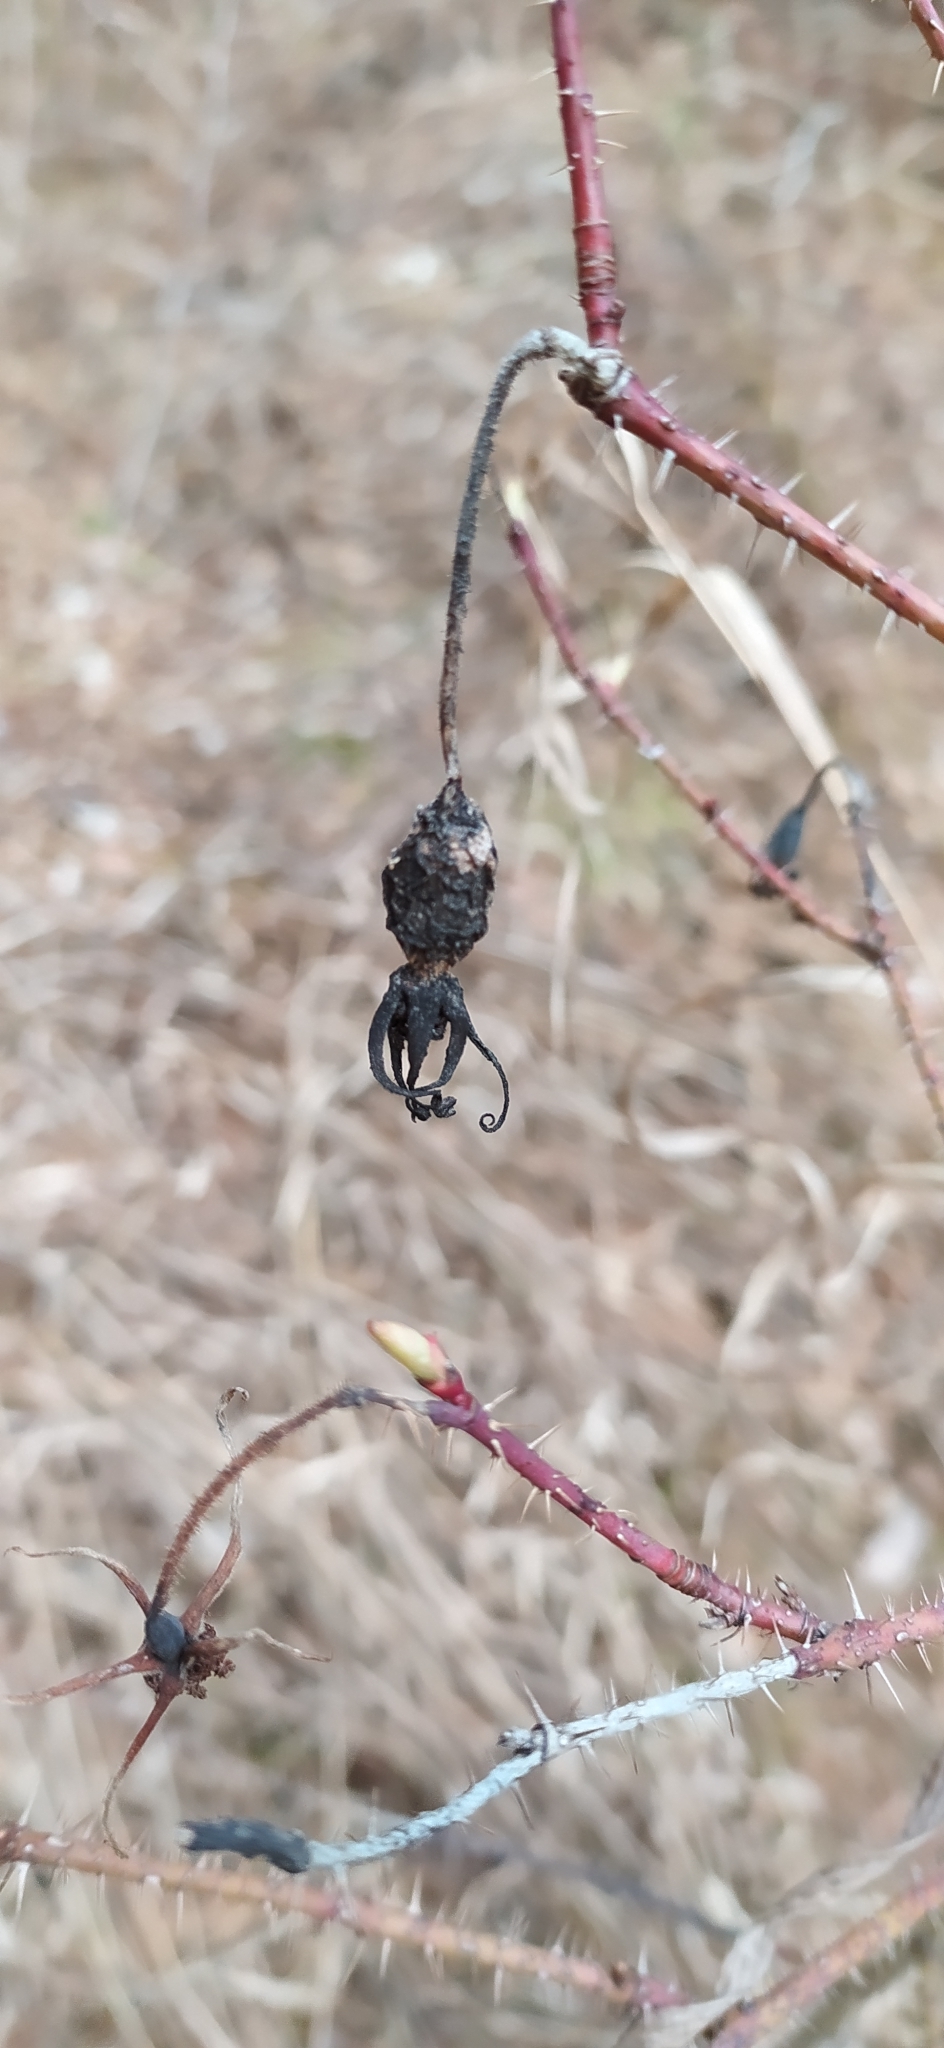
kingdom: Plantae
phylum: Tracheophyta
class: Magnoliopsida
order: Rosales
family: Rosaceae
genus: Rosa
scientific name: Rosa acicularis
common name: Prickly rose
